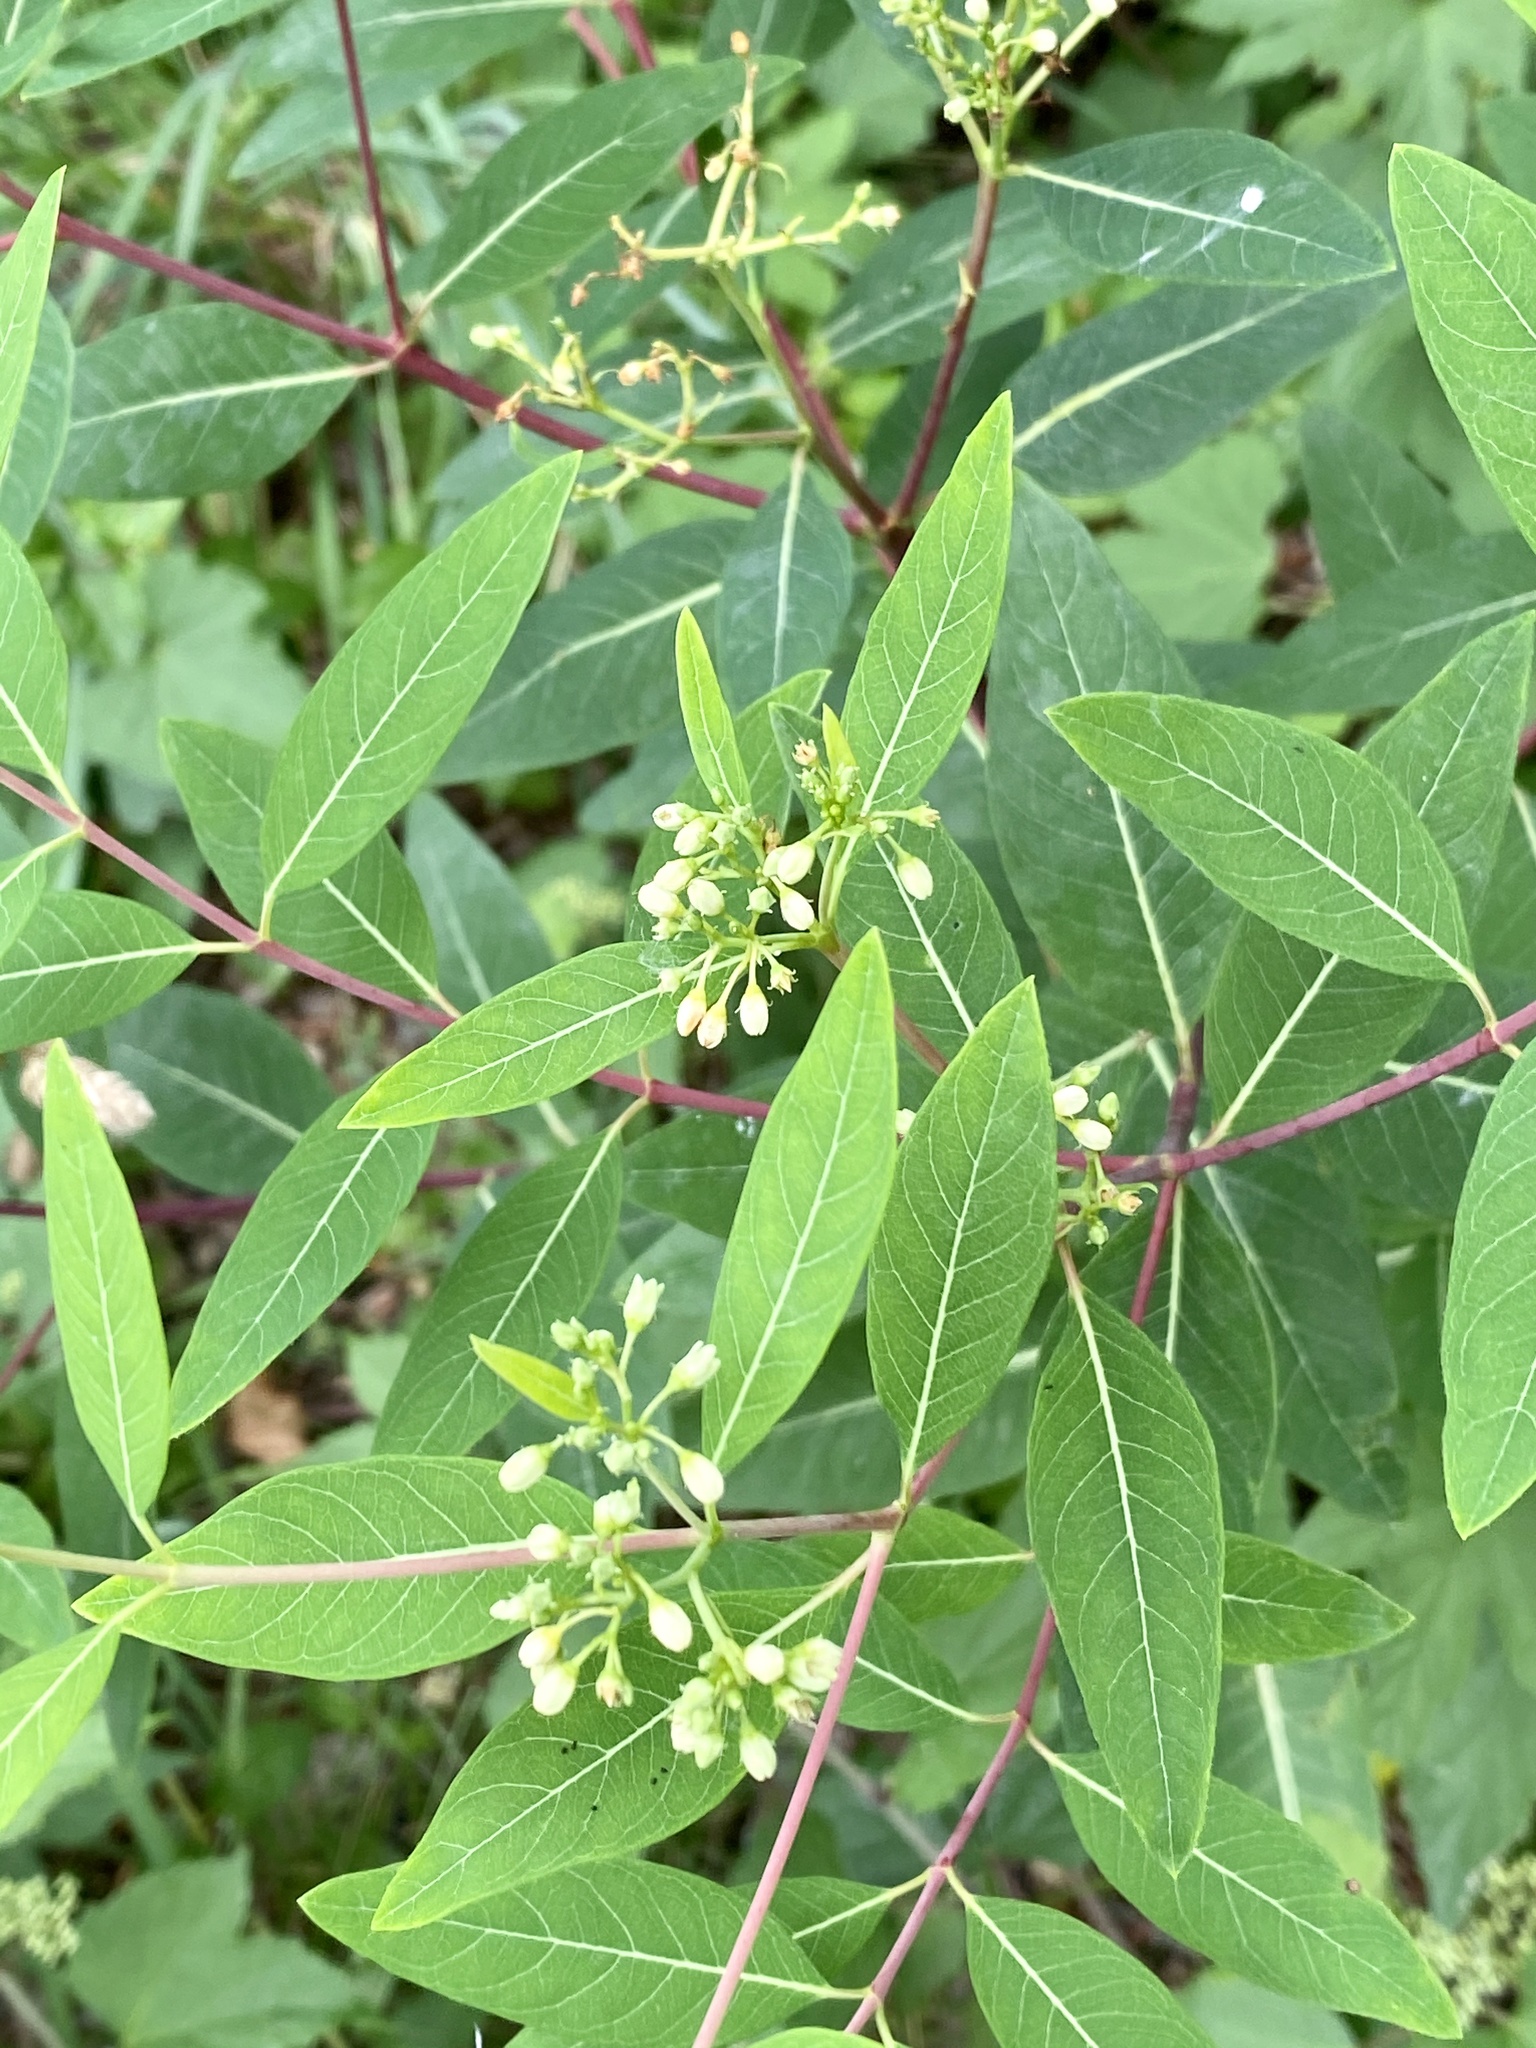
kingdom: Plantae
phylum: Tracheophyta
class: Magnoliopsida
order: Gentianales
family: Apocynaceae
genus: Apocynum
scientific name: Apocynum cannabinum
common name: Hemp dogbane
